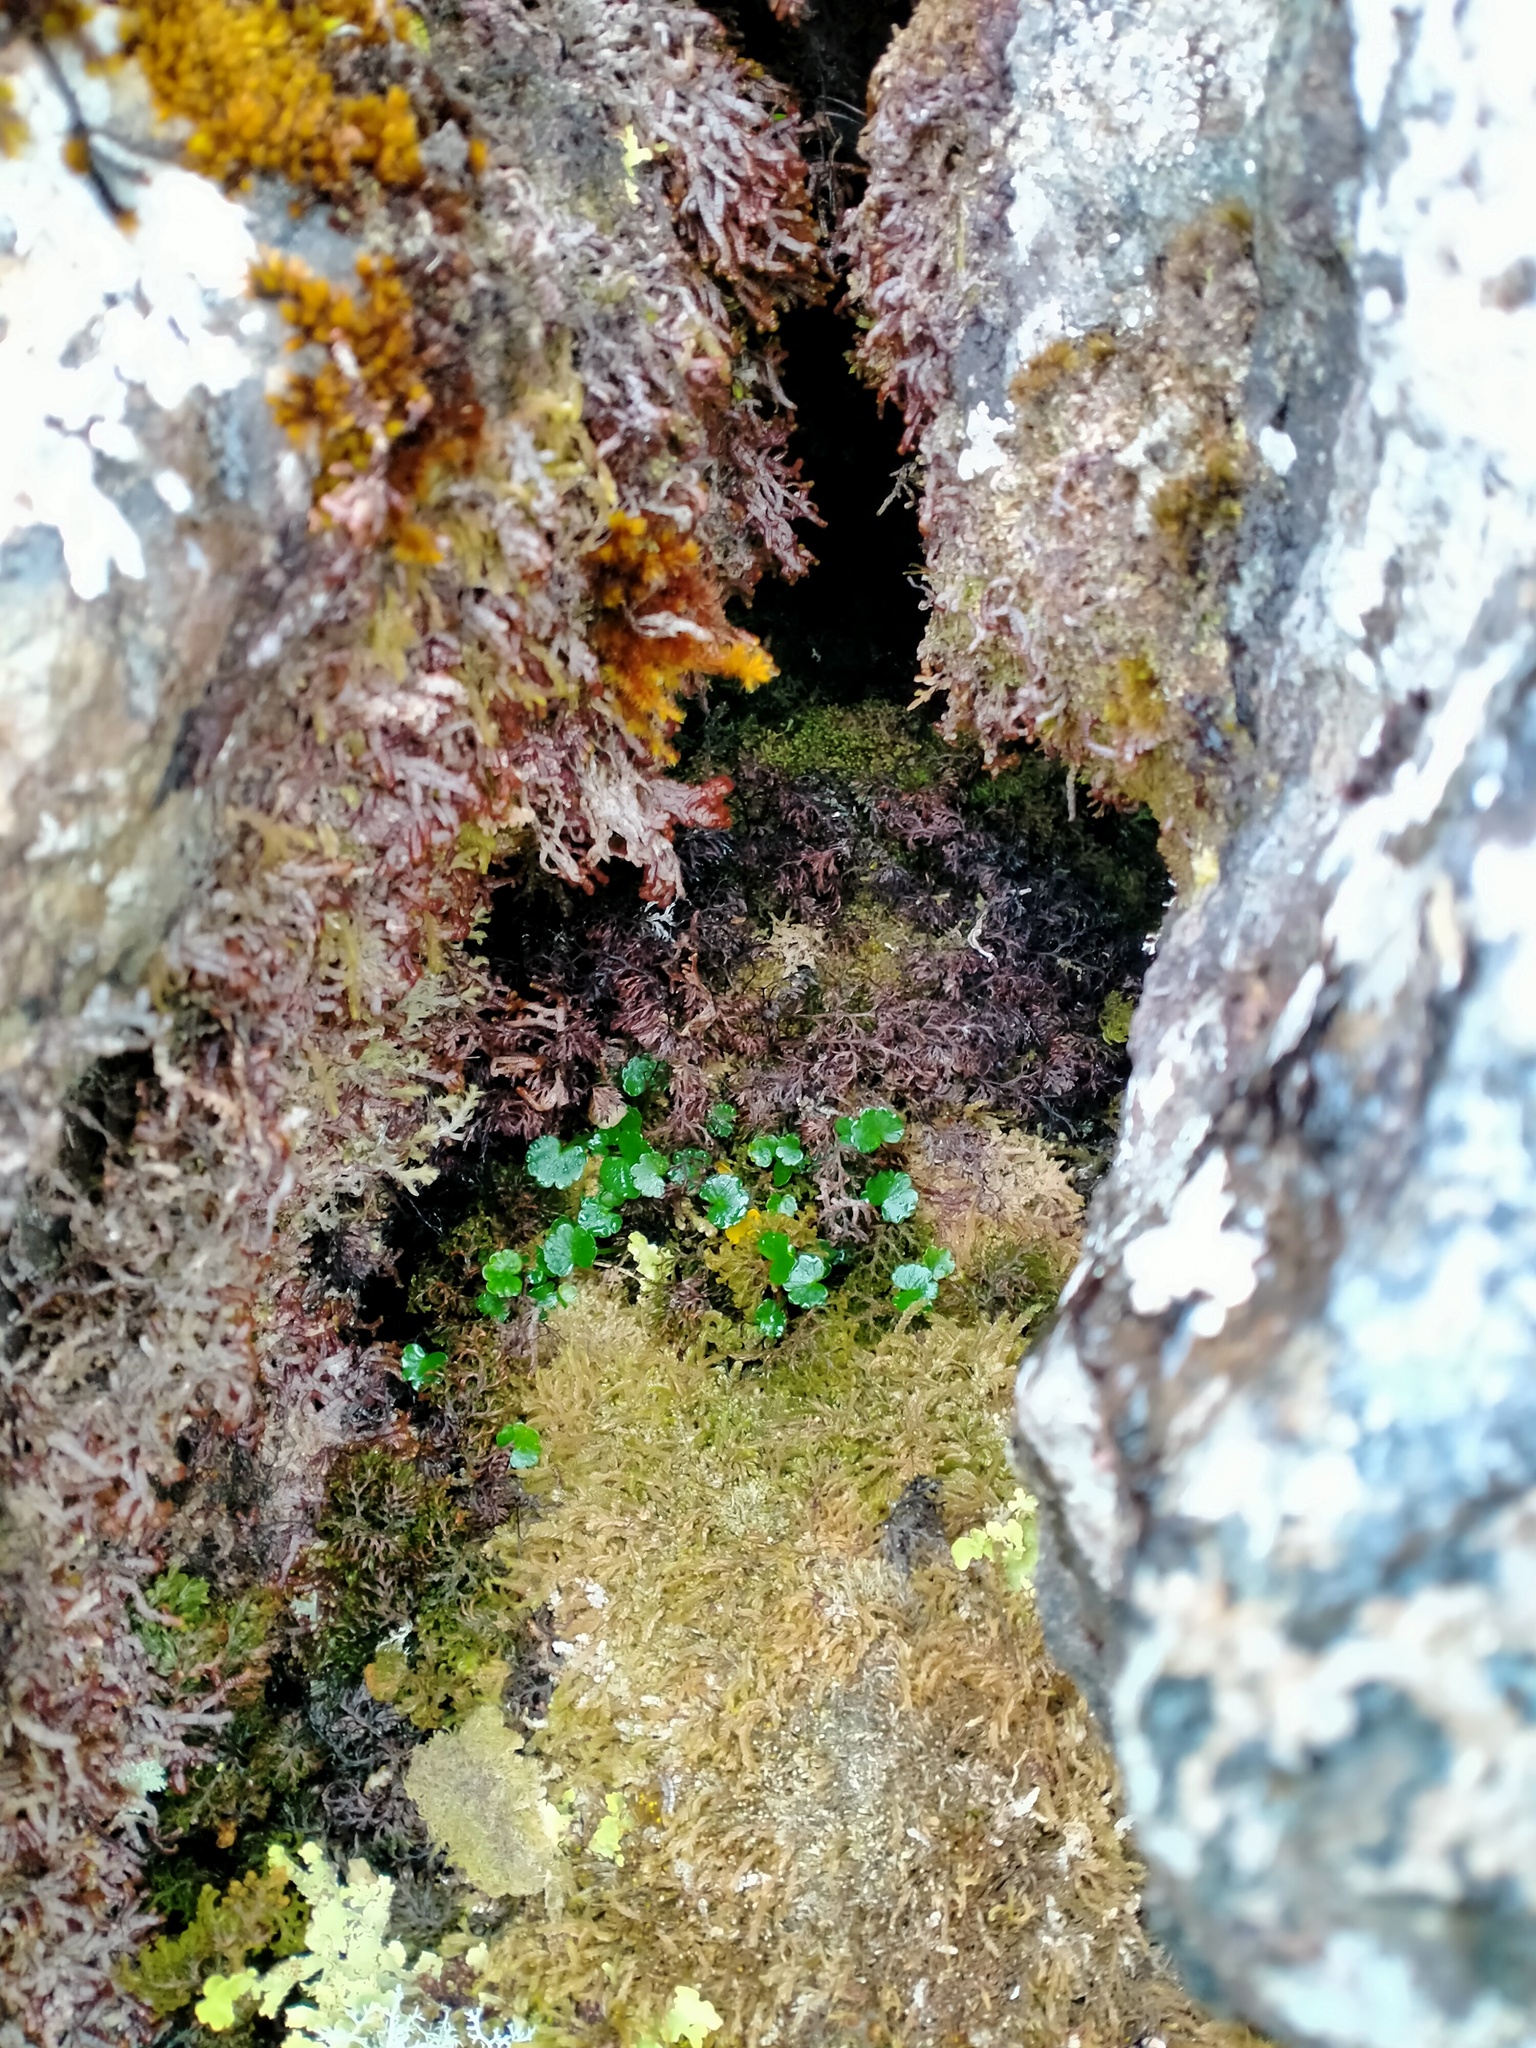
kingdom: Plantae
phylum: Tracheophyta
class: Magnoliopsida
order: Apiales
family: Apiaceae
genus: Azorella
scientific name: Azorella schizeilema
